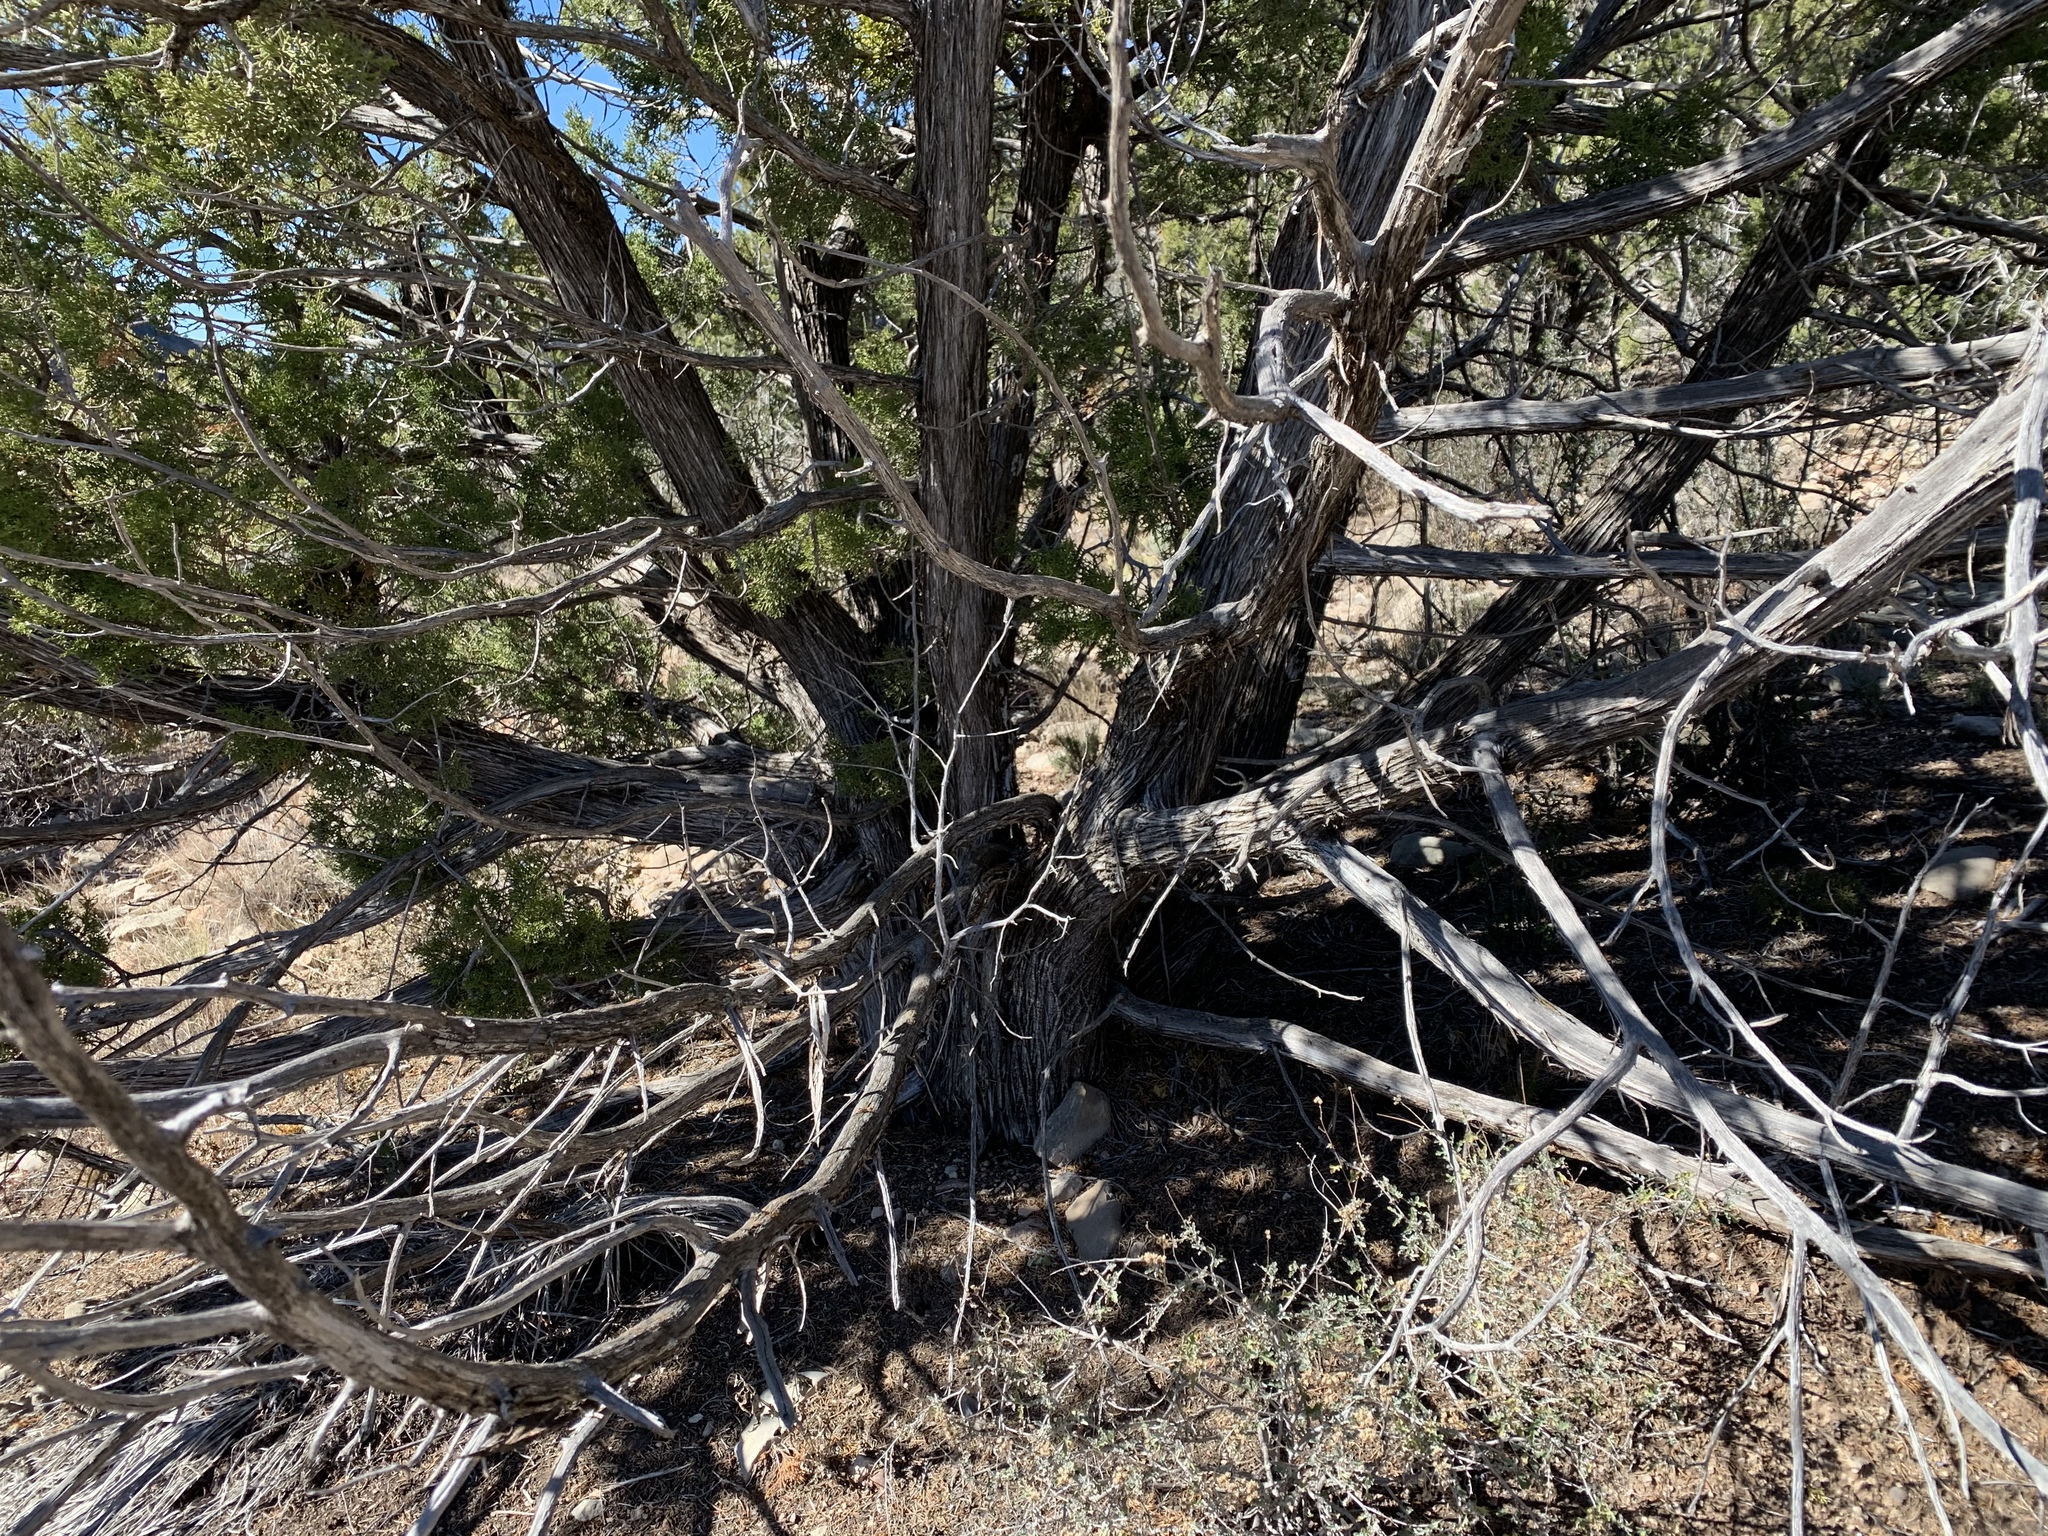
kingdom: Plantae
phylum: Tracheophyta
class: Pinopsida
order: Pinales
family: Cupressaceae
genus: Juniperus
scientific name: Juniperus monosperma
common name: One-seed juniper
